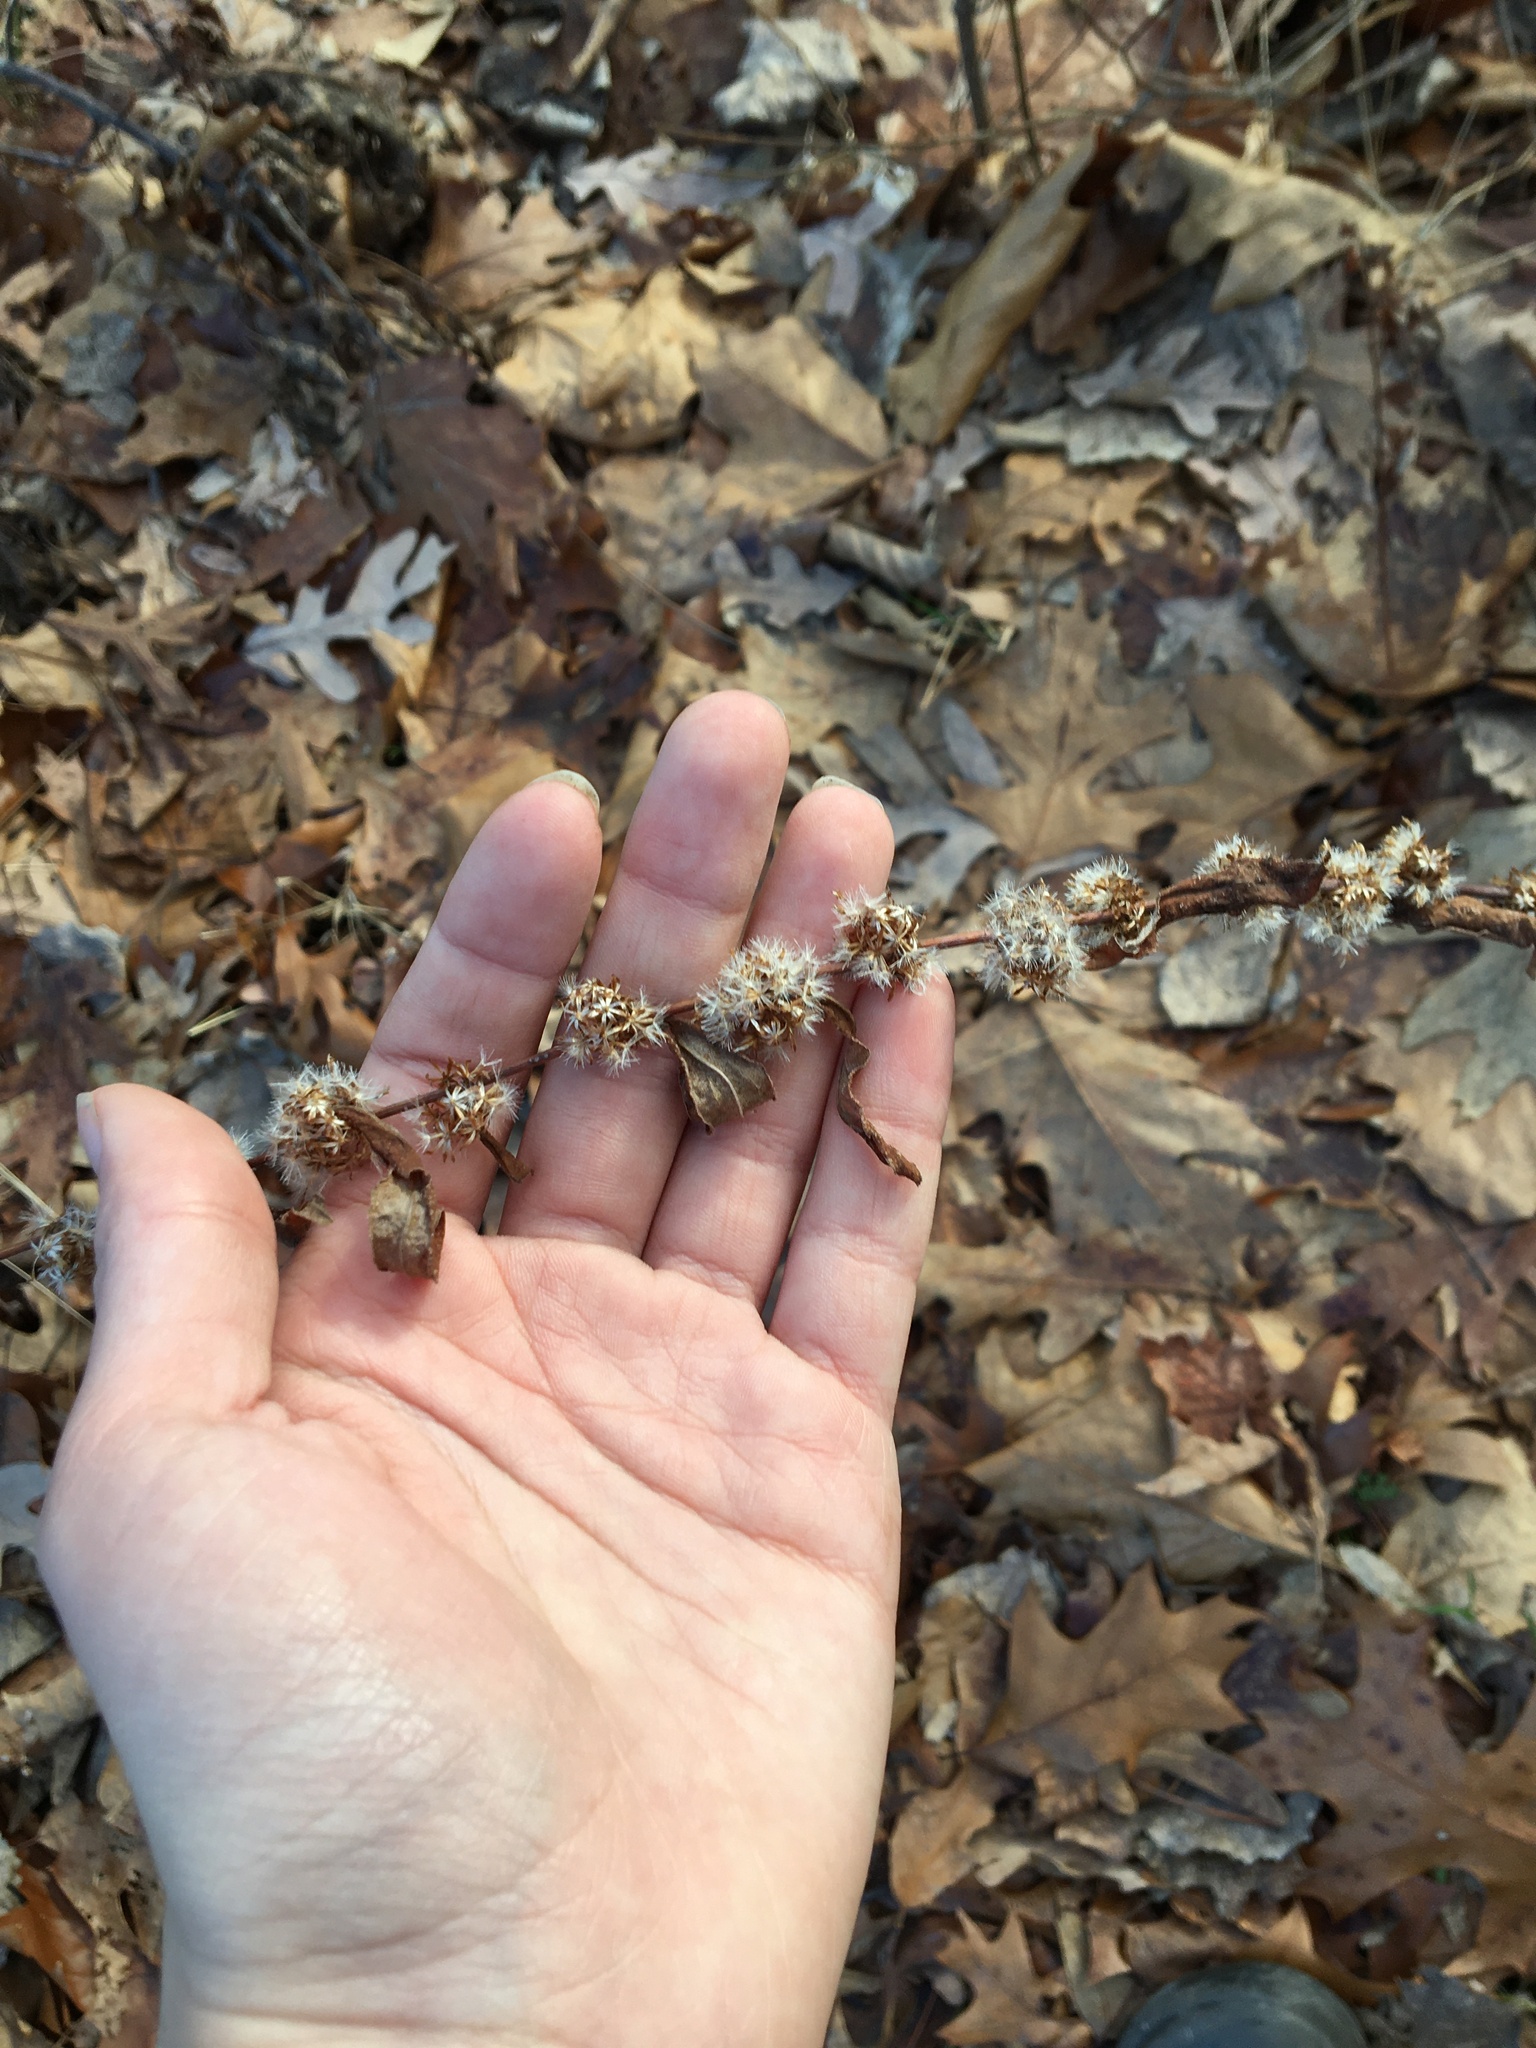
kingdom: Plantae
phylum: Tracheophyta
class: Magnoliopsida
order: Asterales
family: Asteraceae
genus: Solidago
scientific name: Solidago caesia
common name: Woodland goldenrod
